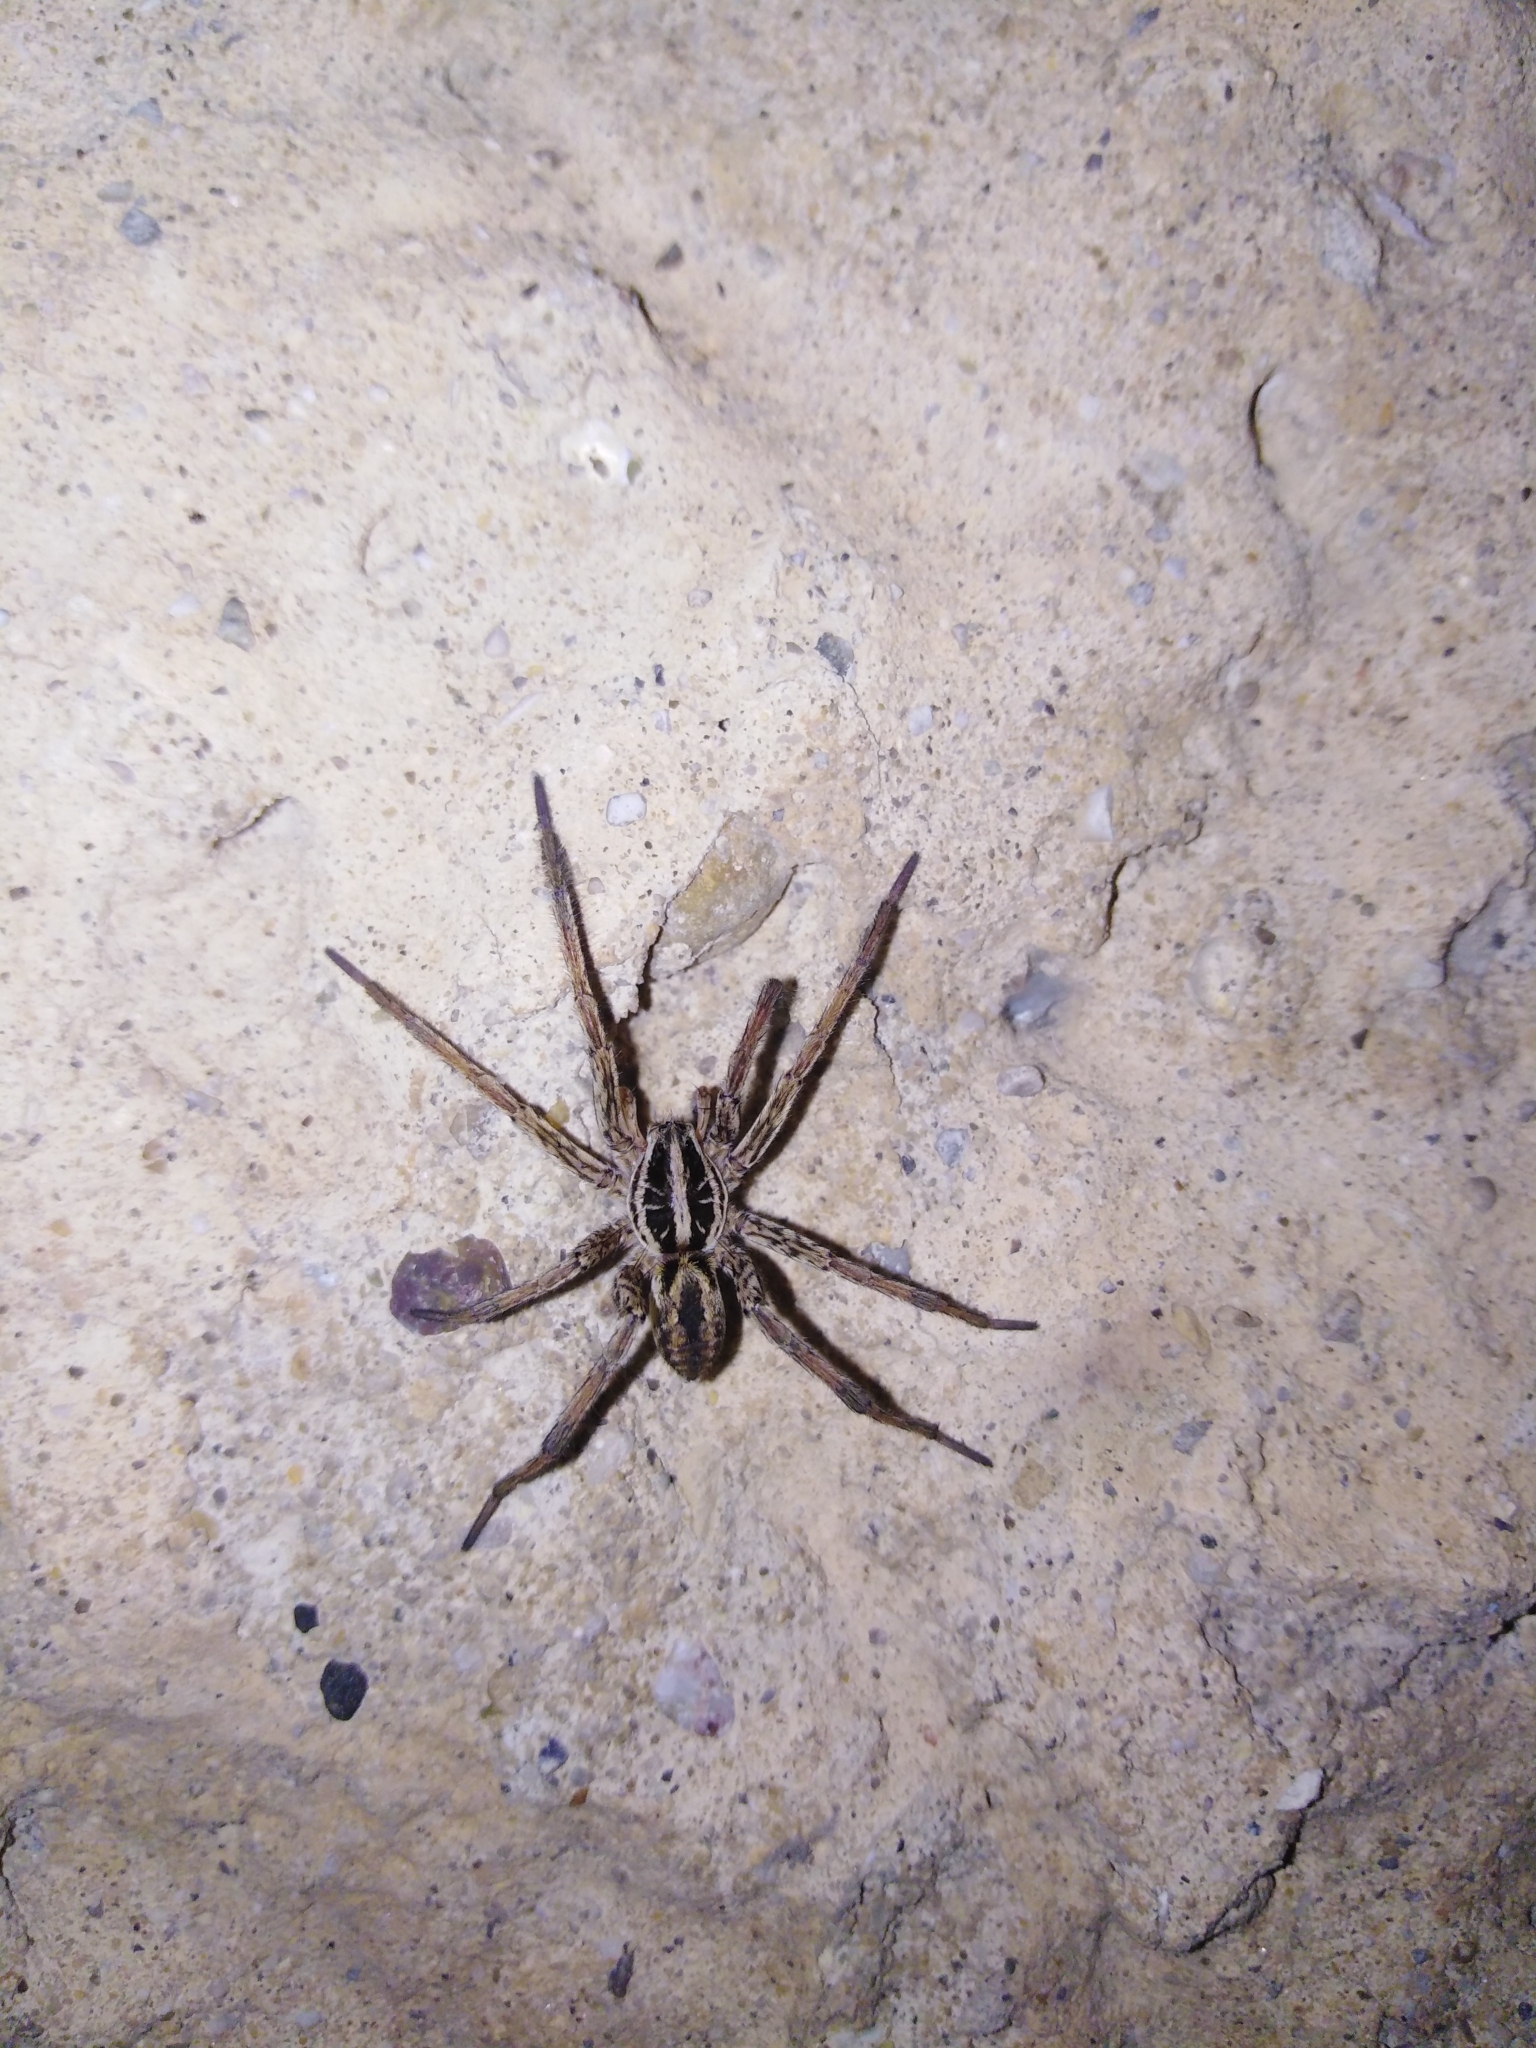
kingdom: Animalia
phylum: Arthropoda
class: Arachnida
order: Araneae
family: Lycosidae
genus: Hogna
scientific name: Hogna radiata
